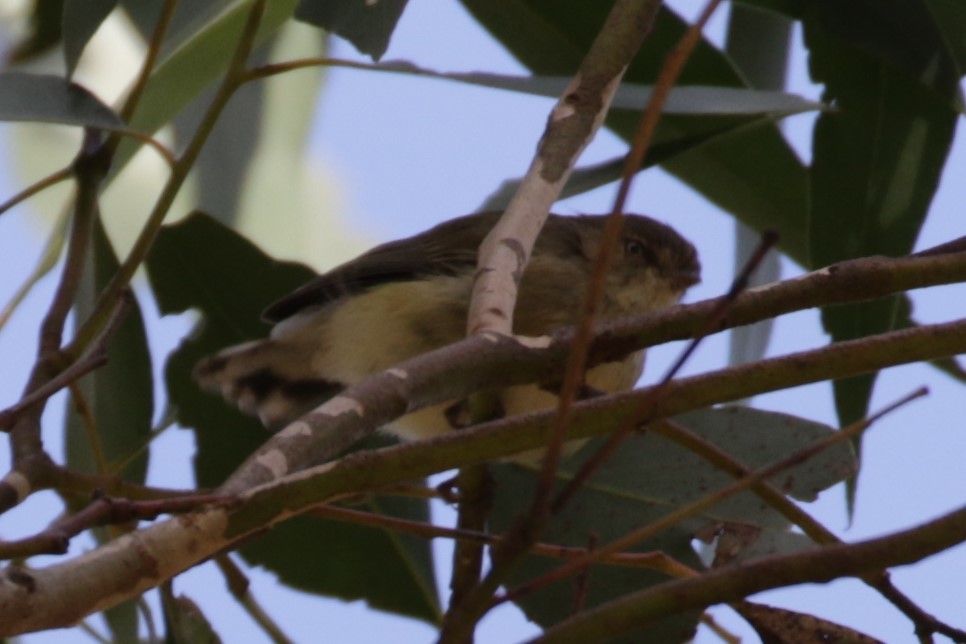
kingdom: Animalia
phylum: Chordata
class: Aves
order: Passeriformes
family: Acanthizidae
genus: Smicrornis
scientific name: Smicrornis brevirostris
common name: Weebill
